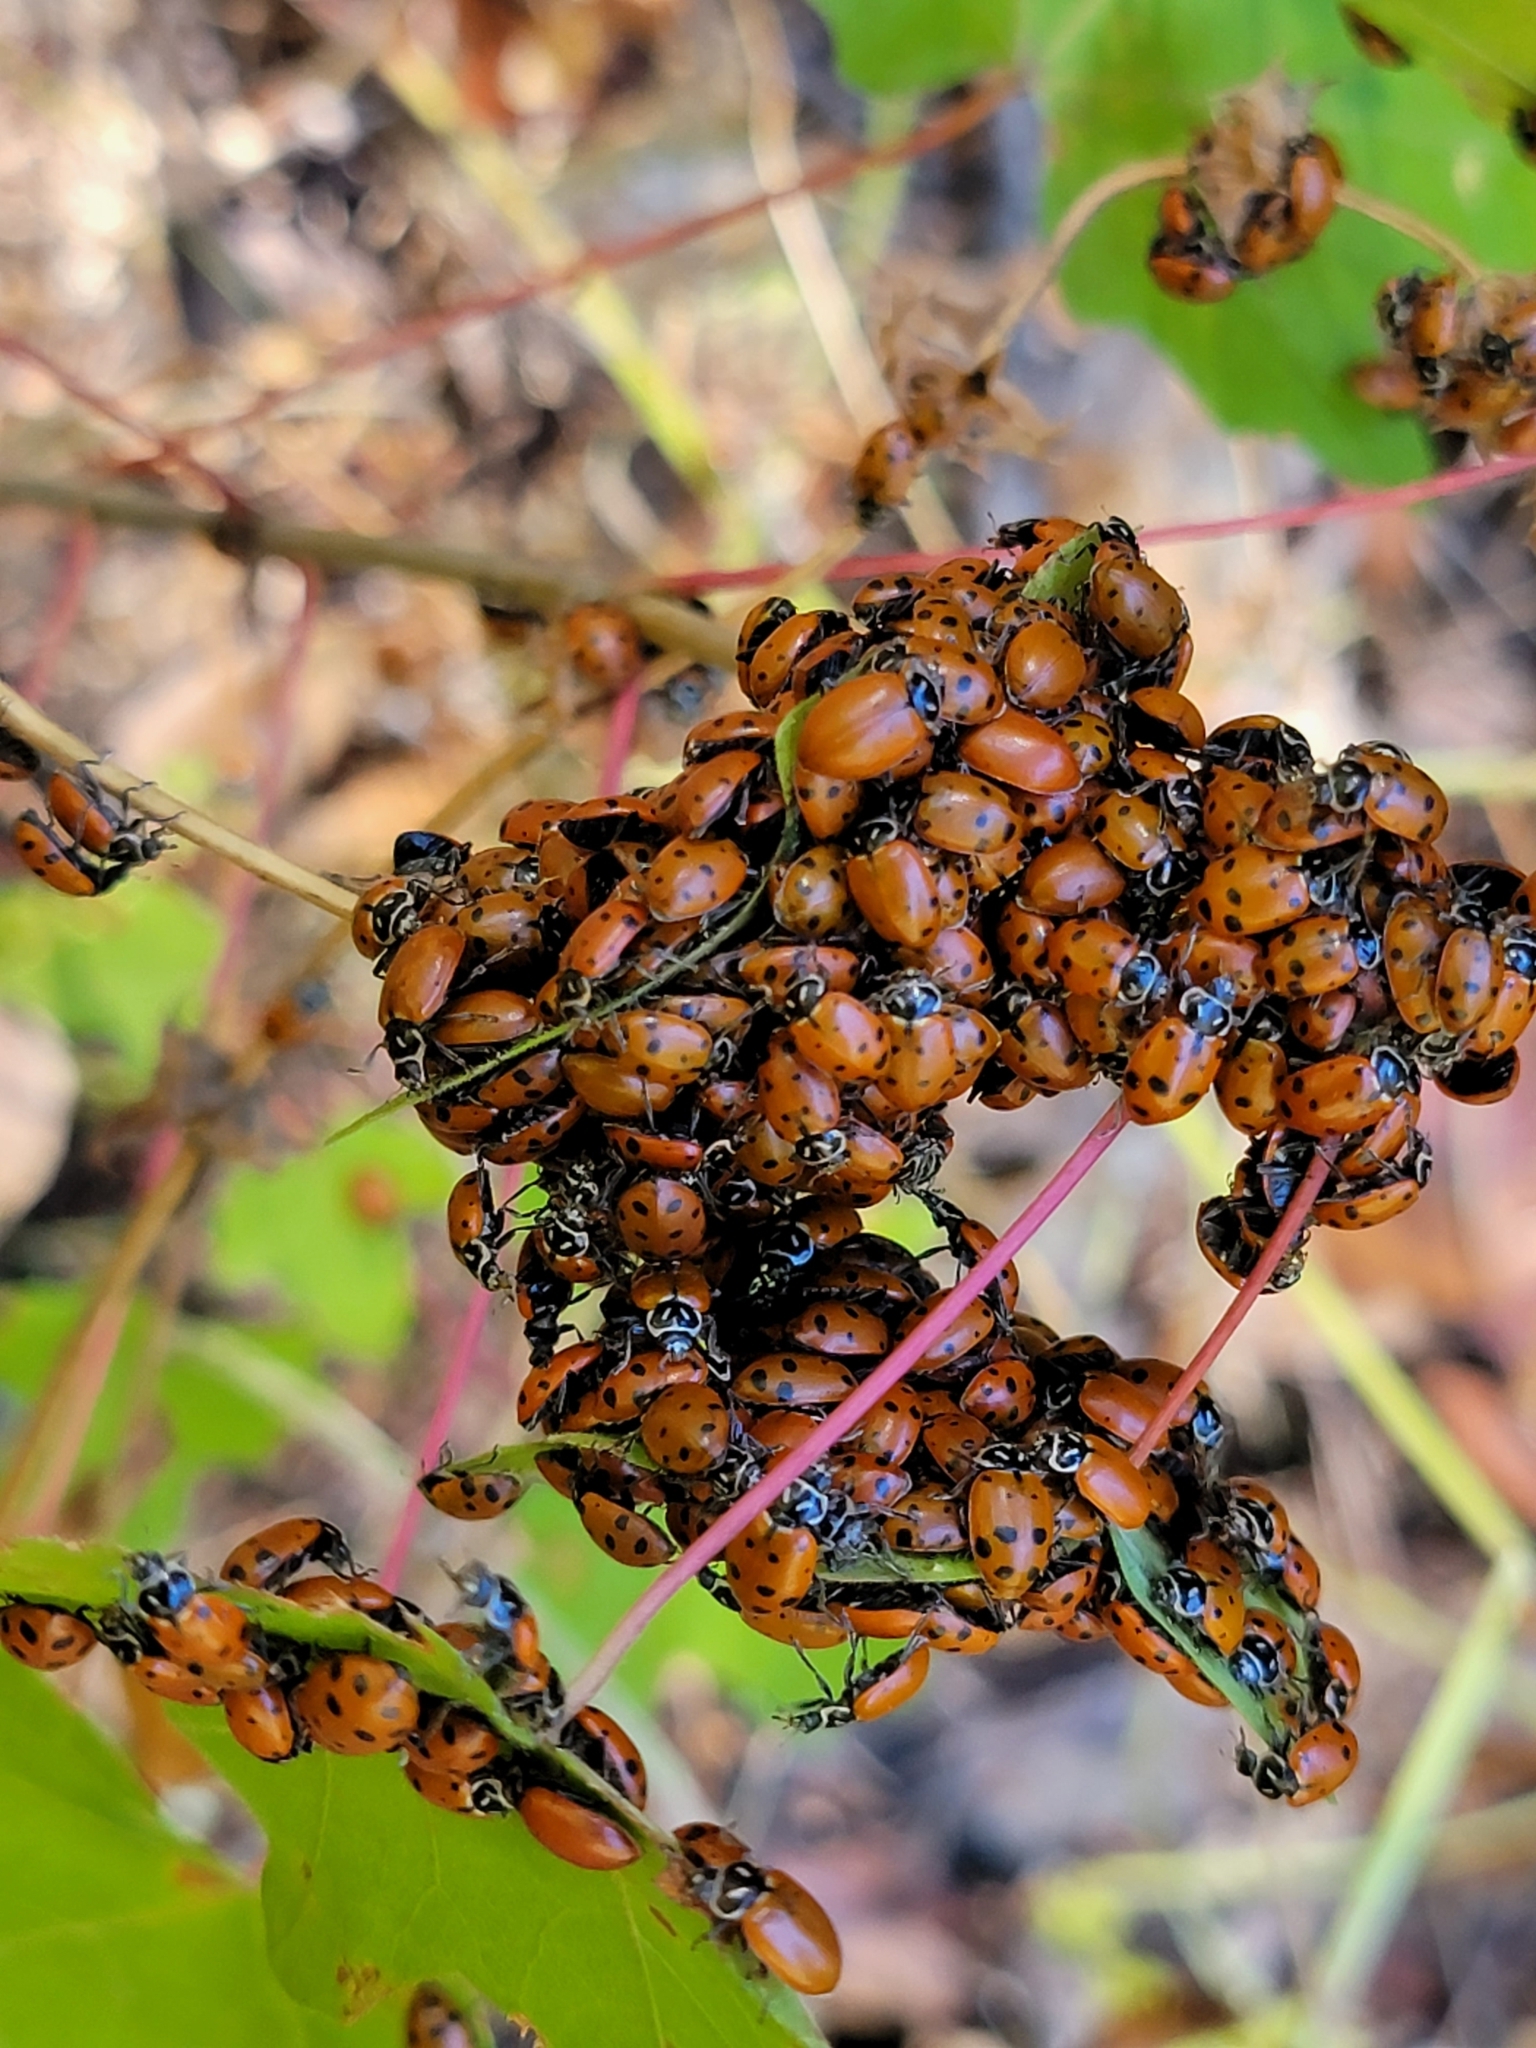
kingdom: Animalia
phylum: Arthropoda
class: Insecta
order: Coleoptera
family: Coccinellidae
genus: Hippodamia
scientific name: Hippodamia convergens
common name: Convergent lady beetle
